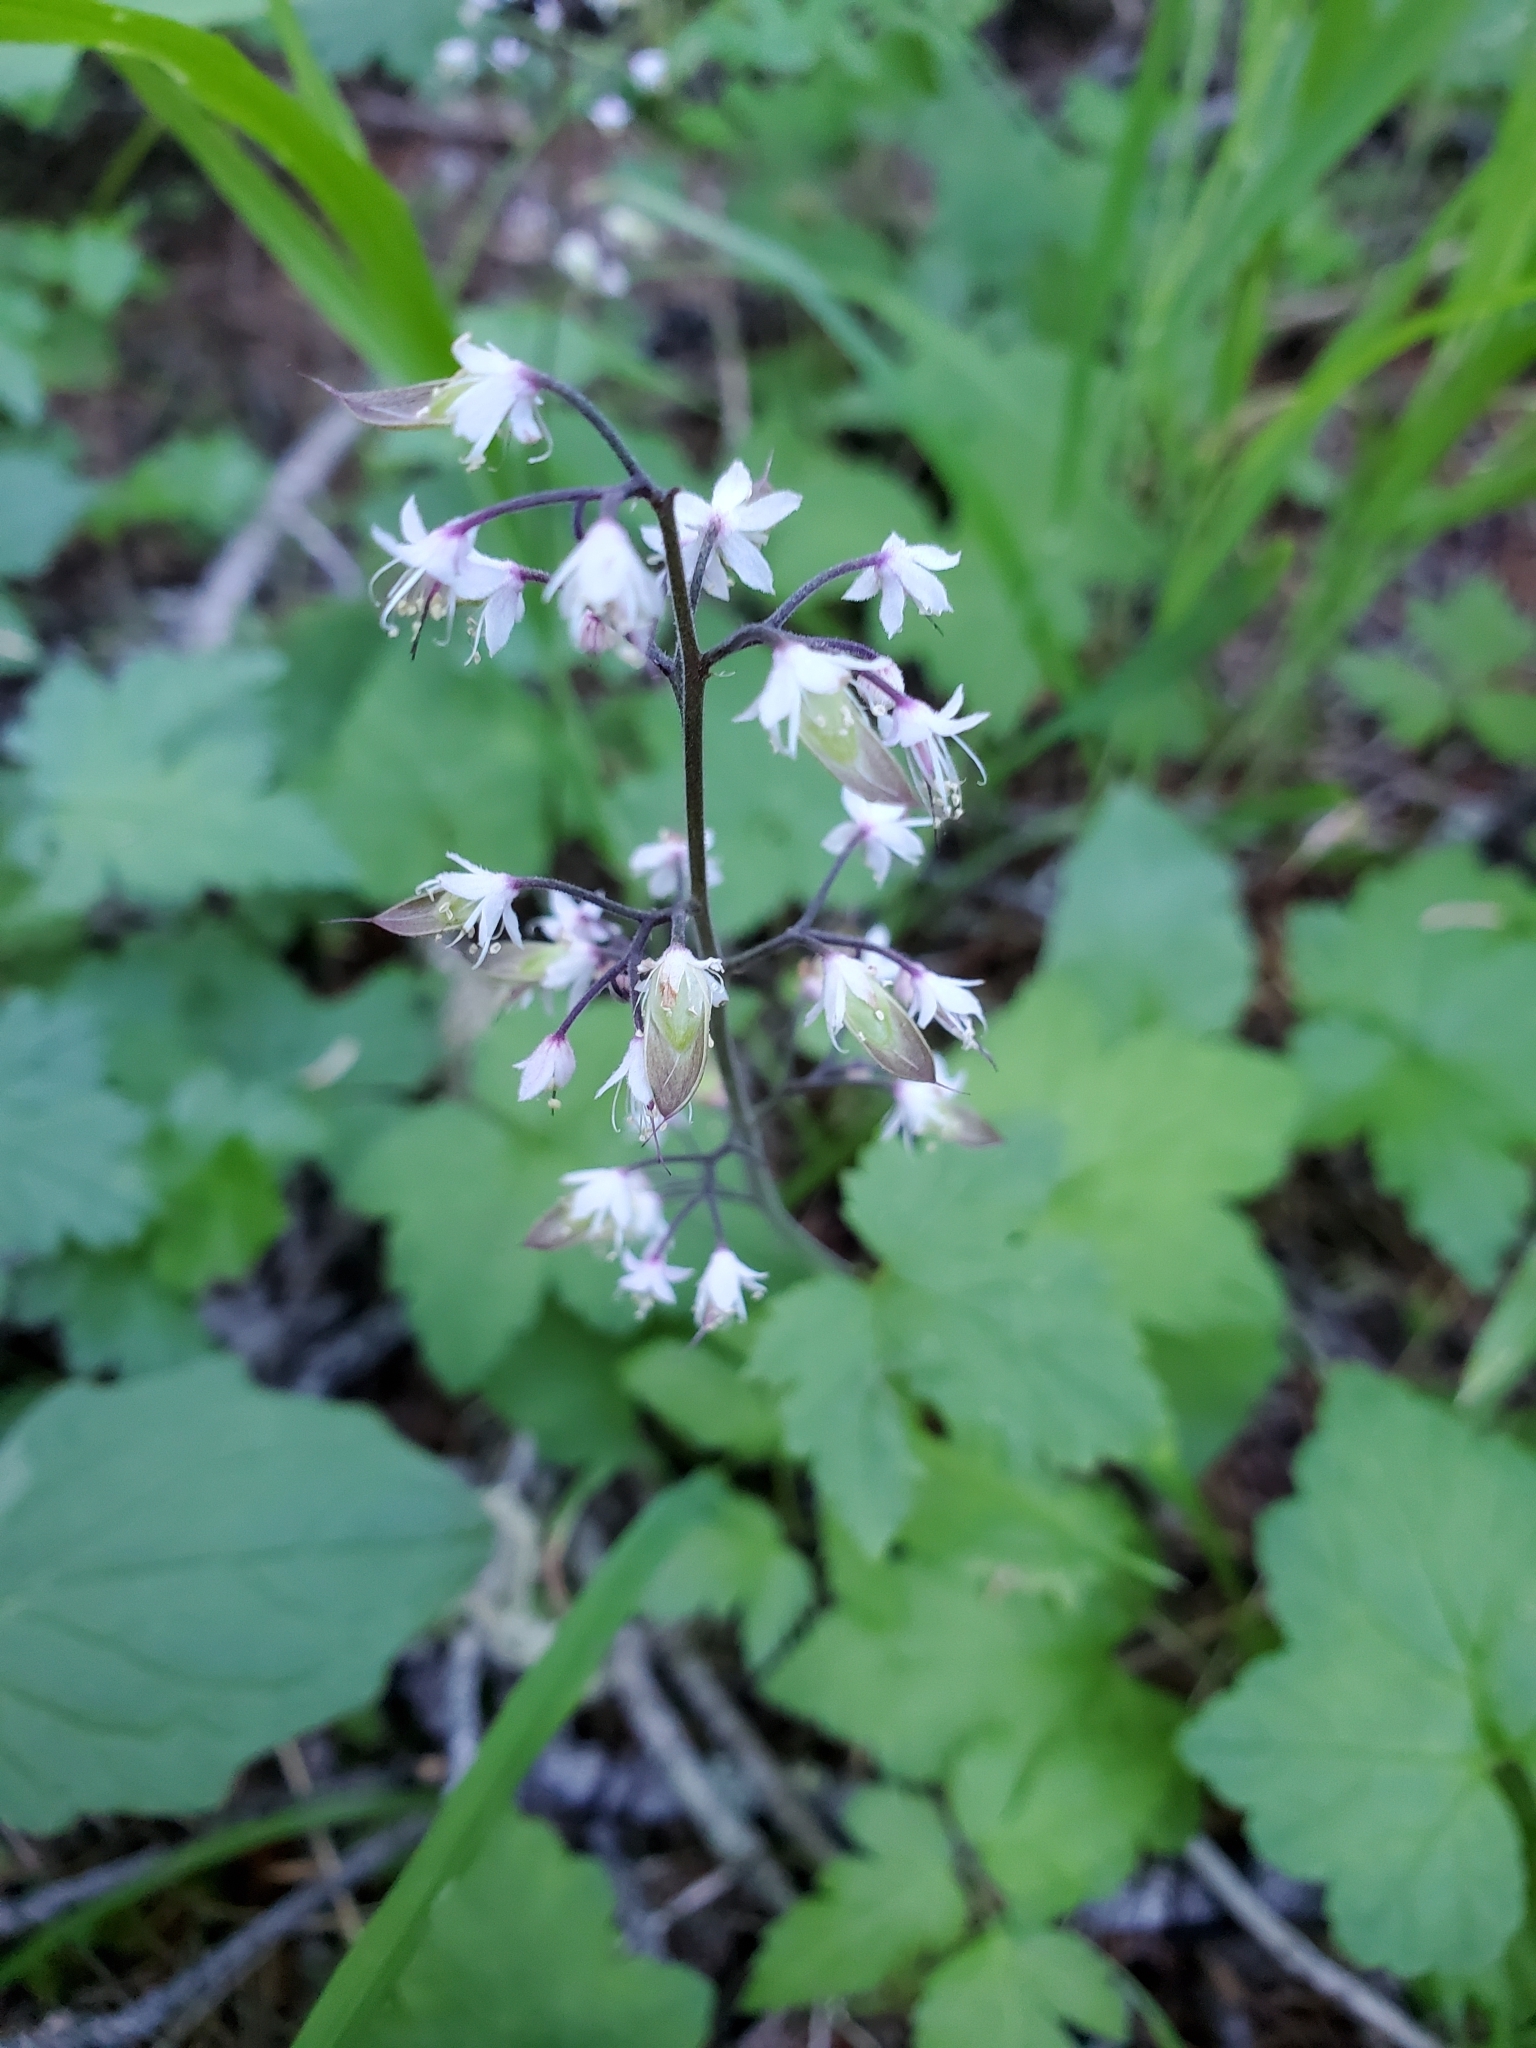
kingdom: Plantae
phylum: Tracheophyta
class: Magnoliopsida
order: Saxifragales
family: Saxifragaceae
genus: Tiarella
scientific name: Tiarella trifoliata
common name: Sugar-scoop
